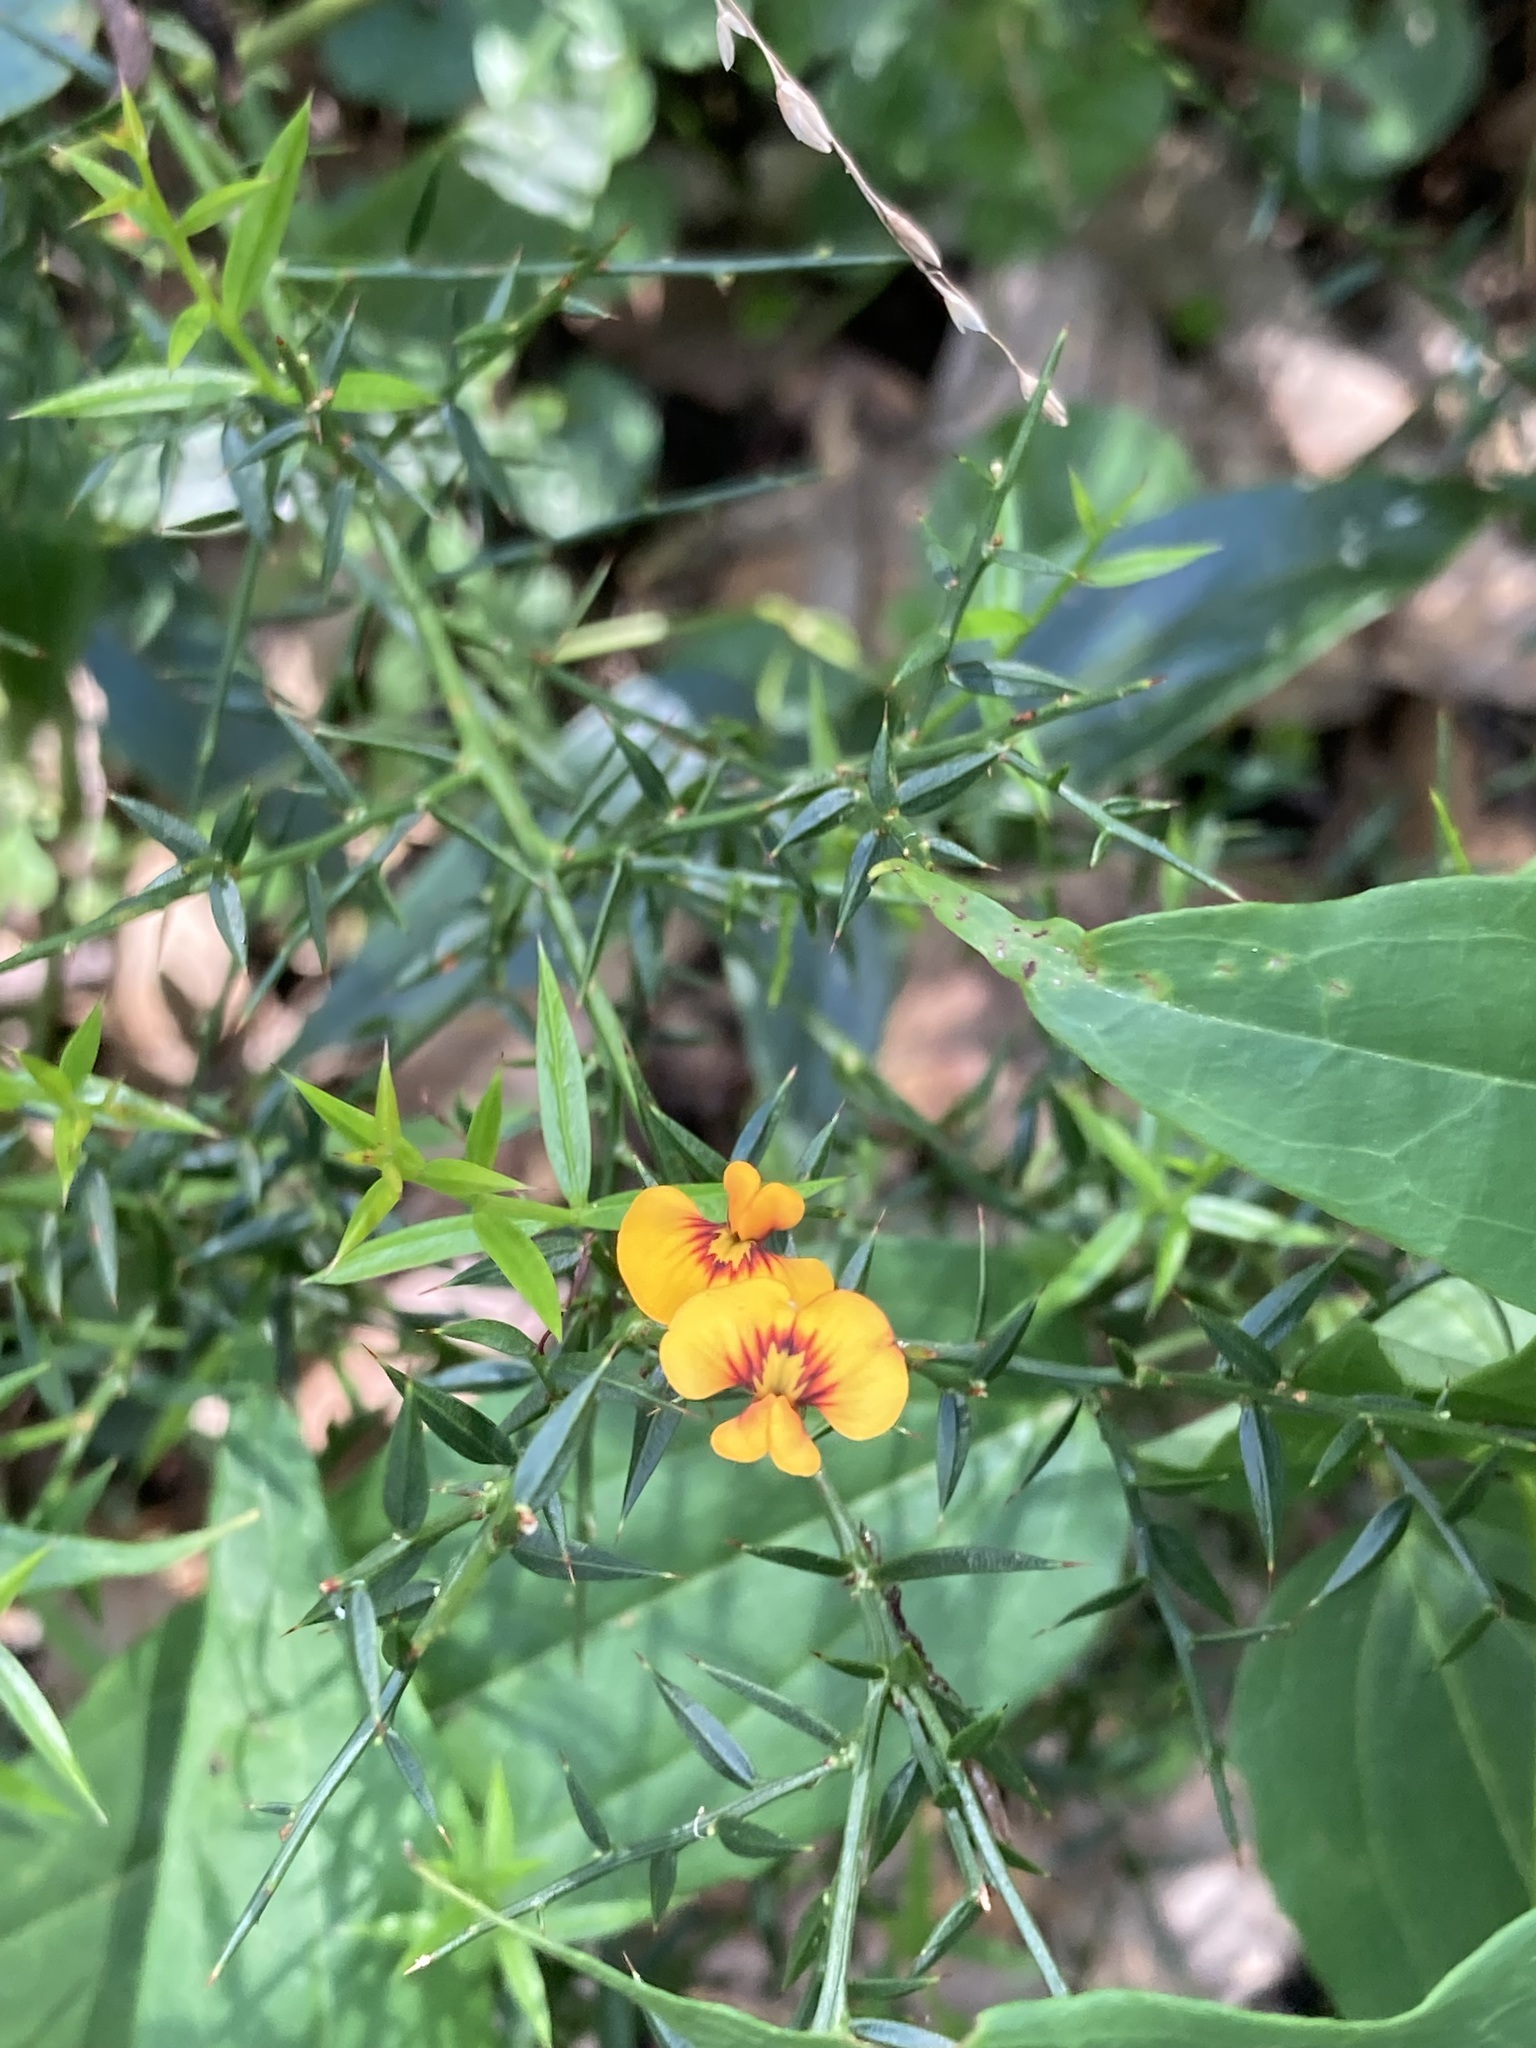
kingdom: Plantae
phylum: Tracheophyta
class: Magnoliopsida
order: Fabales
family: Fabaceae
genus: Daviesia
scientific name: Daviesia ulicifolia
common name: Gorse bitter-pea
